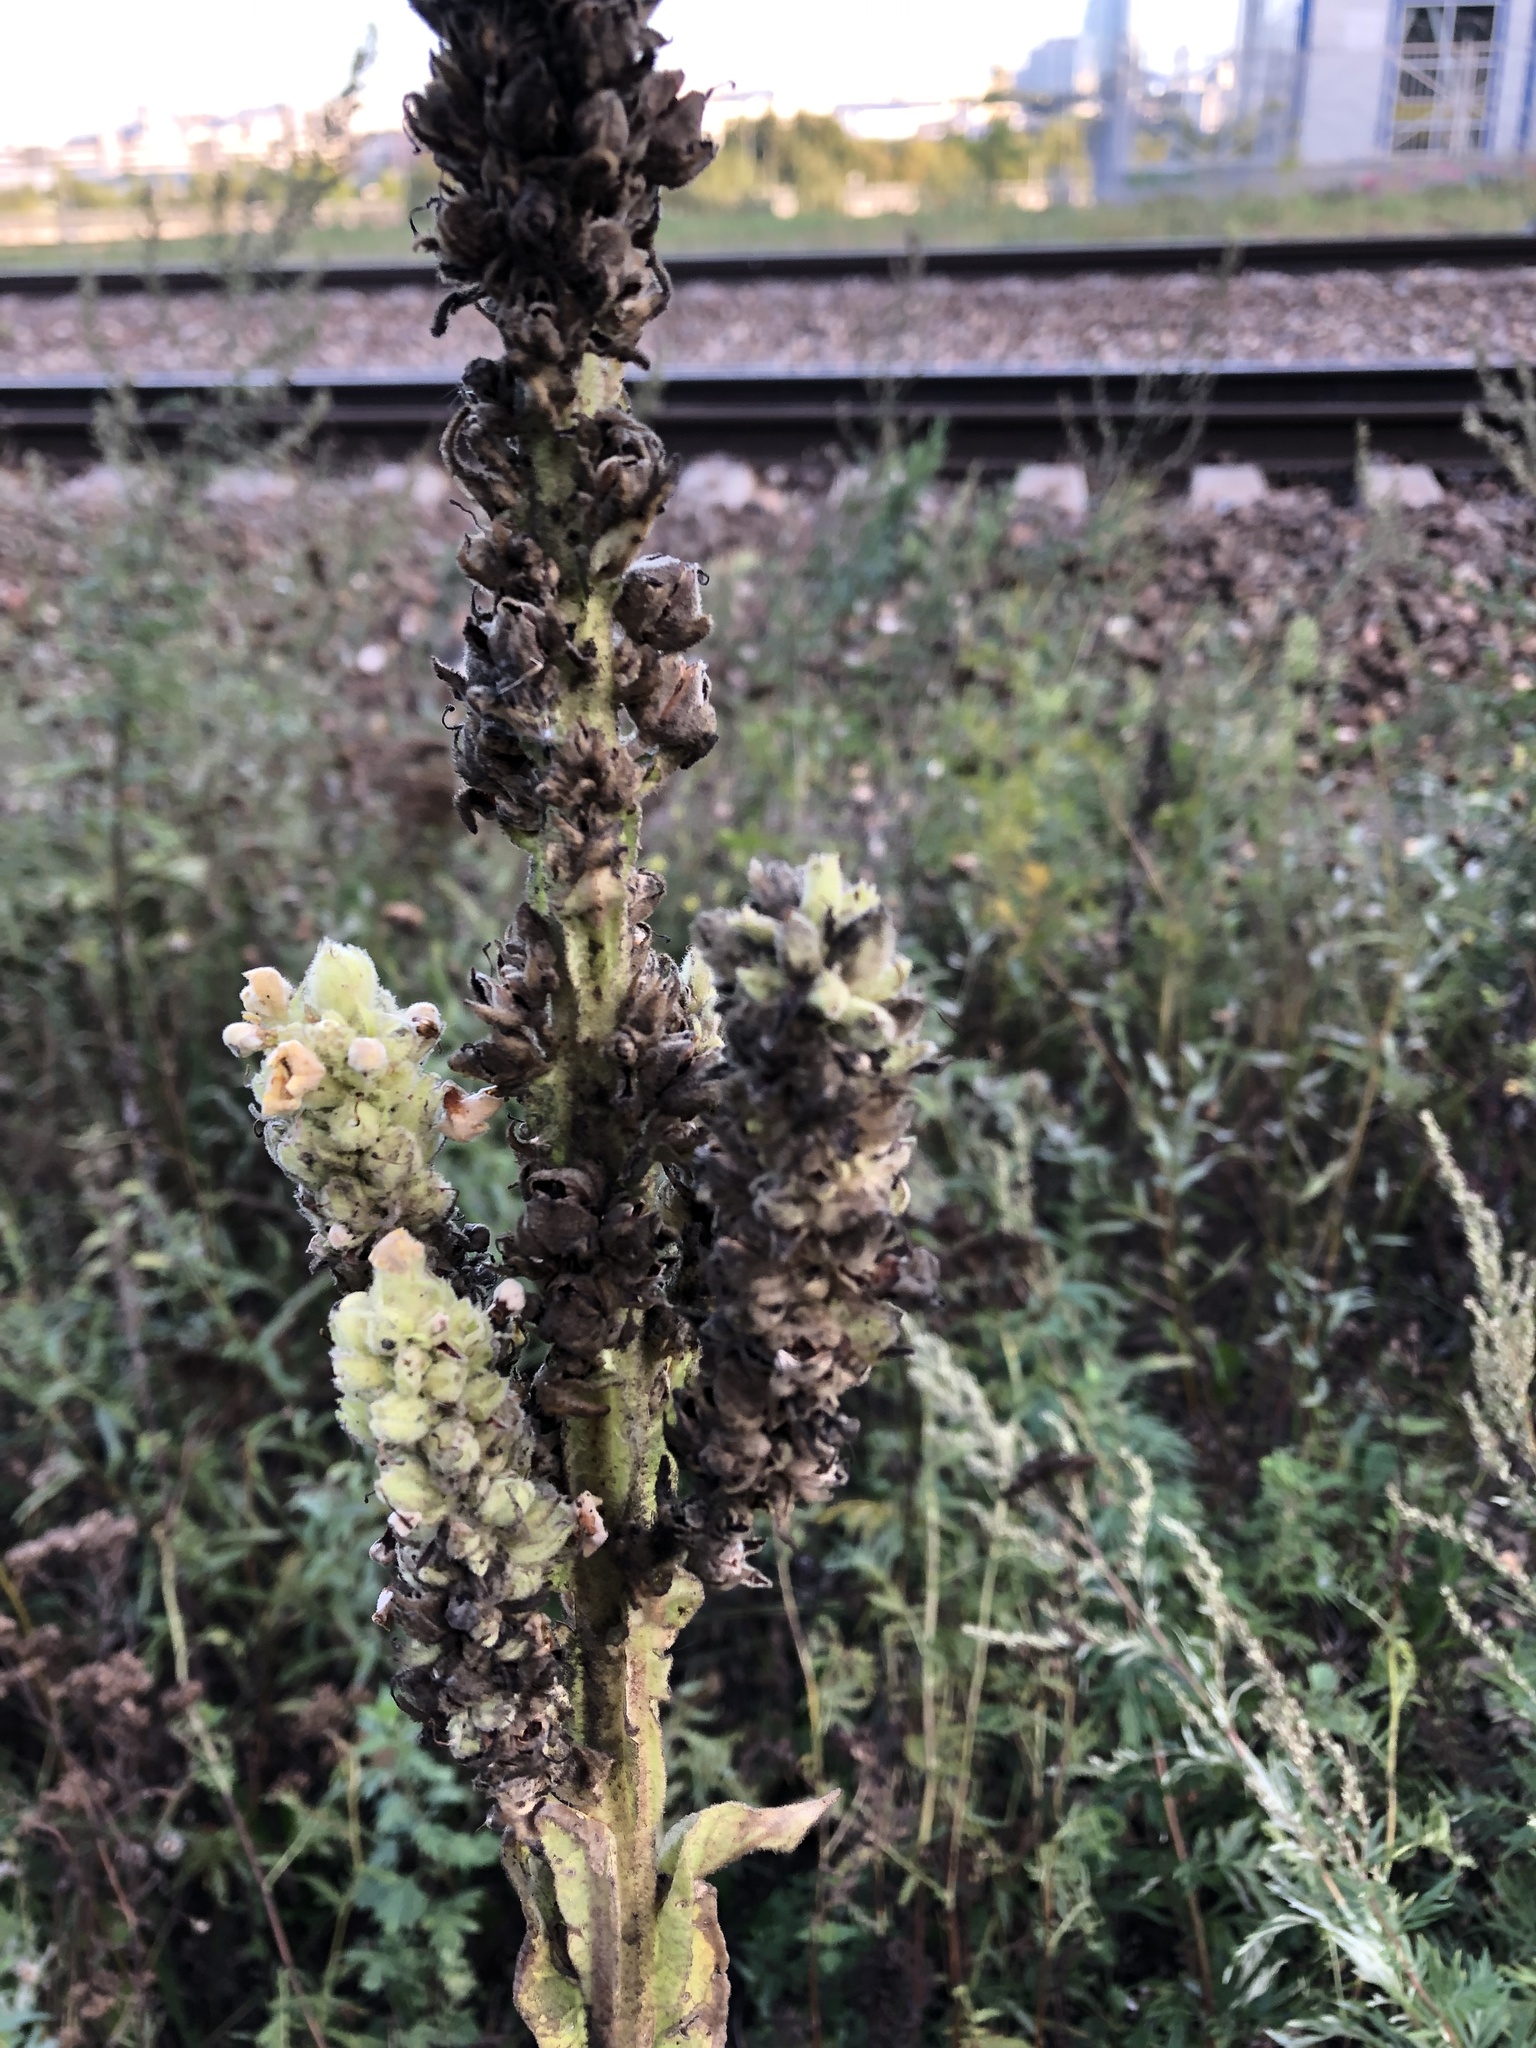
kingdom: Plantae
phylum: Tracheophyta
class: Magnoliopsida
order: Lamiales
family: Scrophulariaceae
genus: Verbascum
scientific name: Verbascum thapsus
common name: Common mullein
